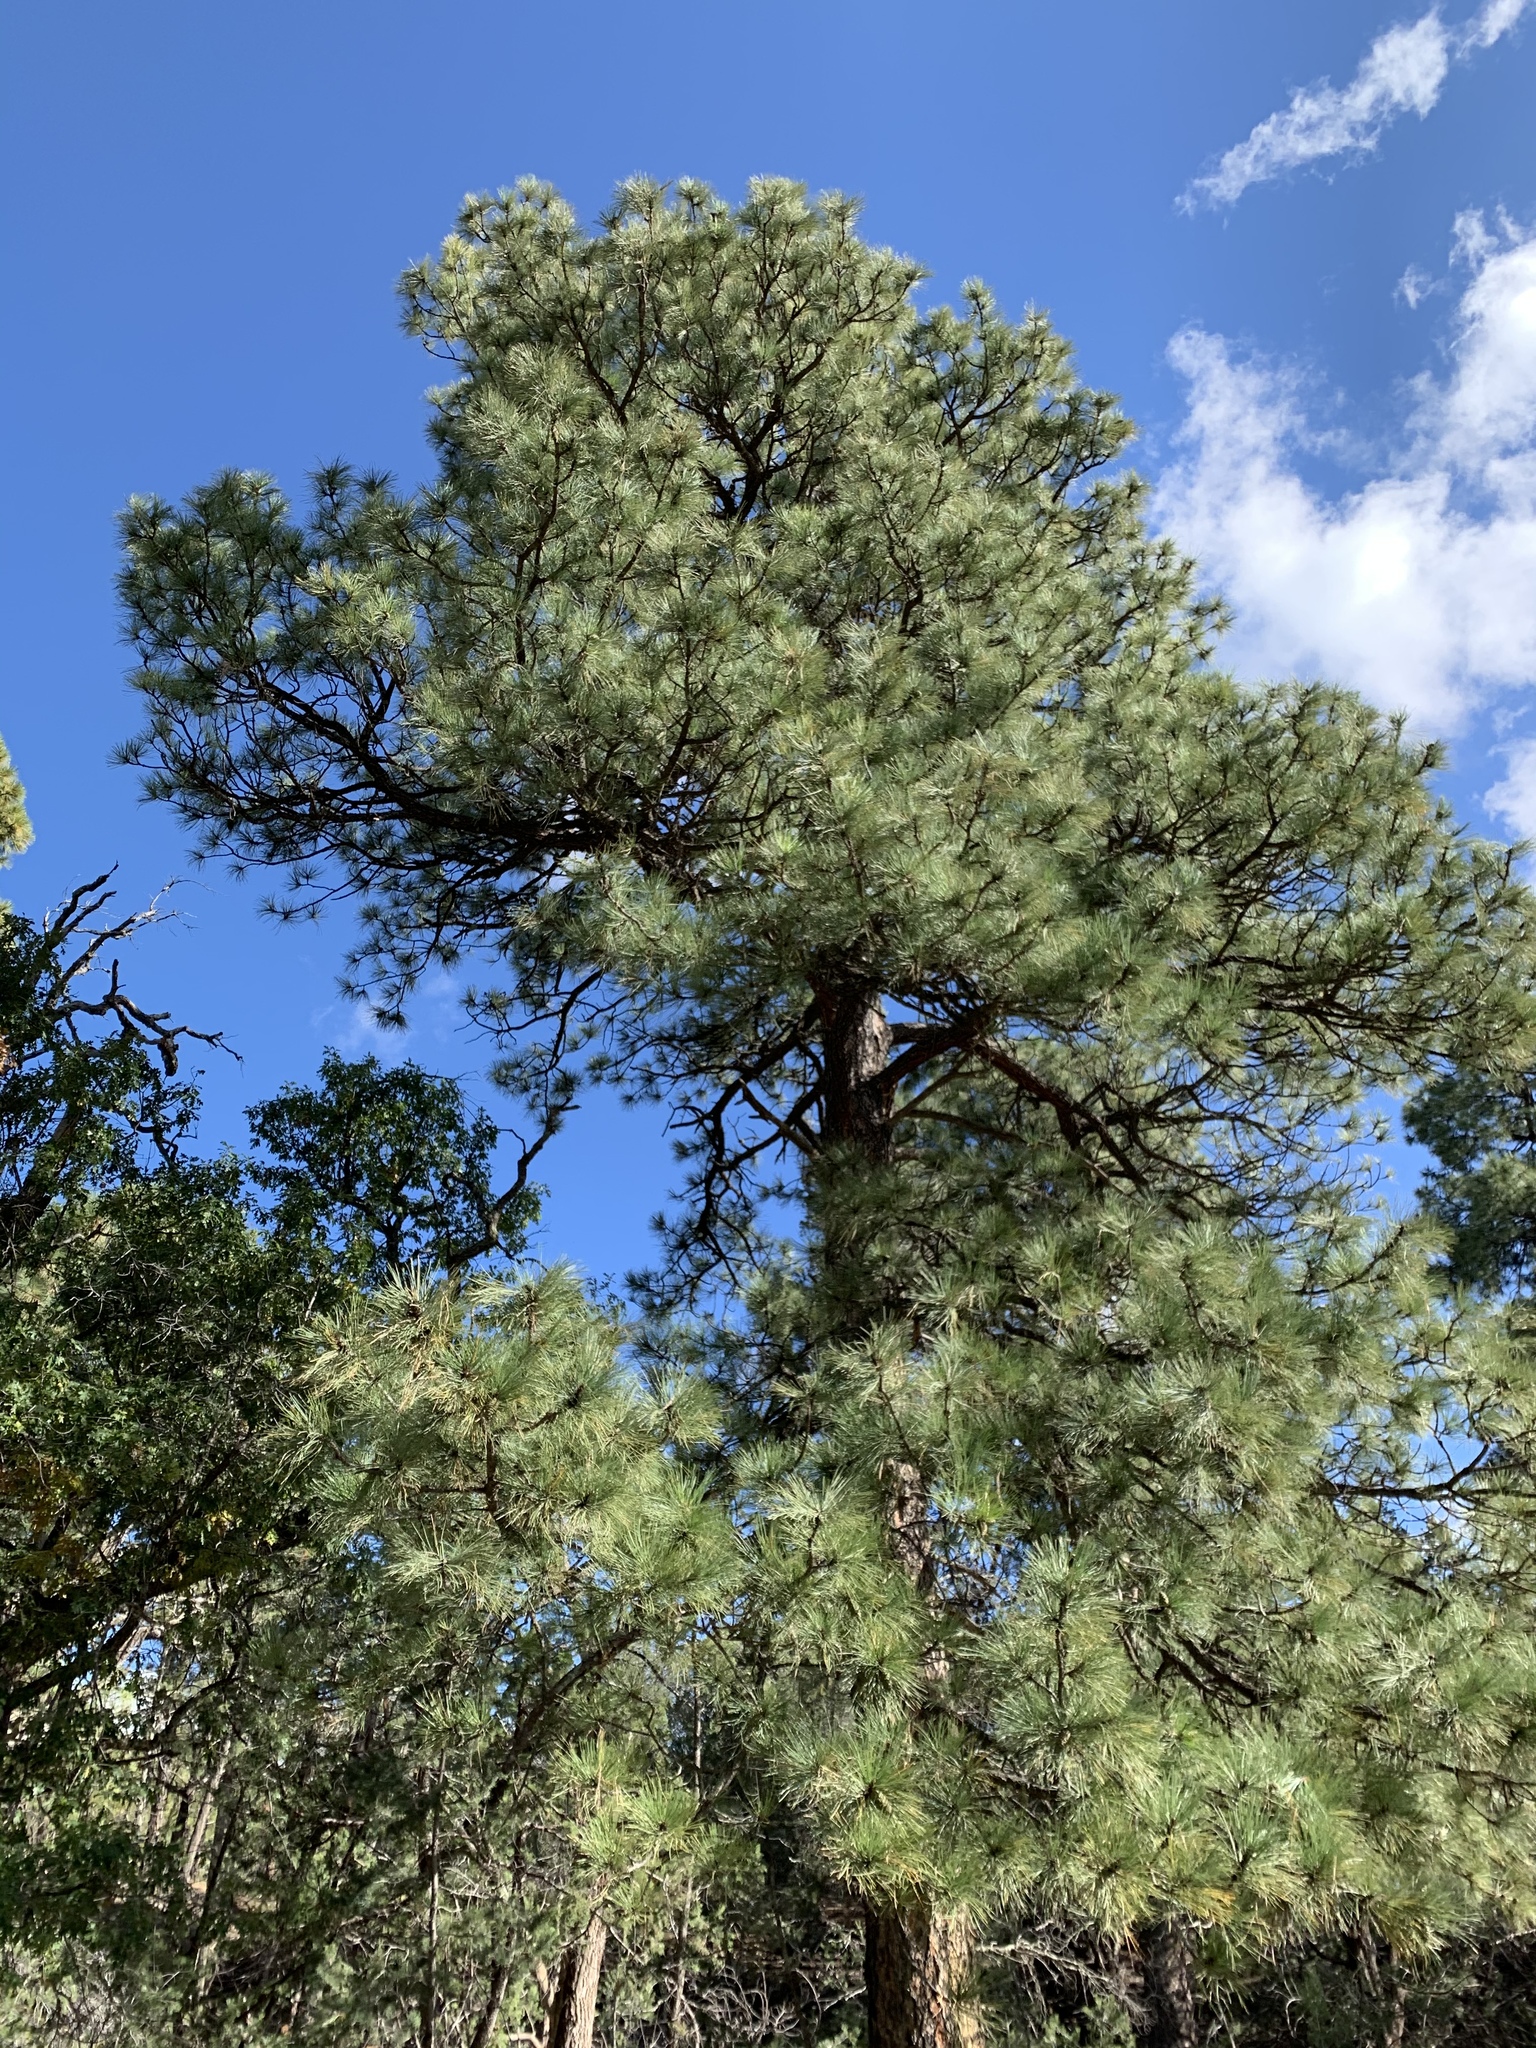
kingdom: Plantae
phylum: Tracheophyta
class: Pinopsida
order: Pinales
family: Pinaceae
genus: Pinus
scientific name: Pinus ponderosa
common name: Western yellow-pine
